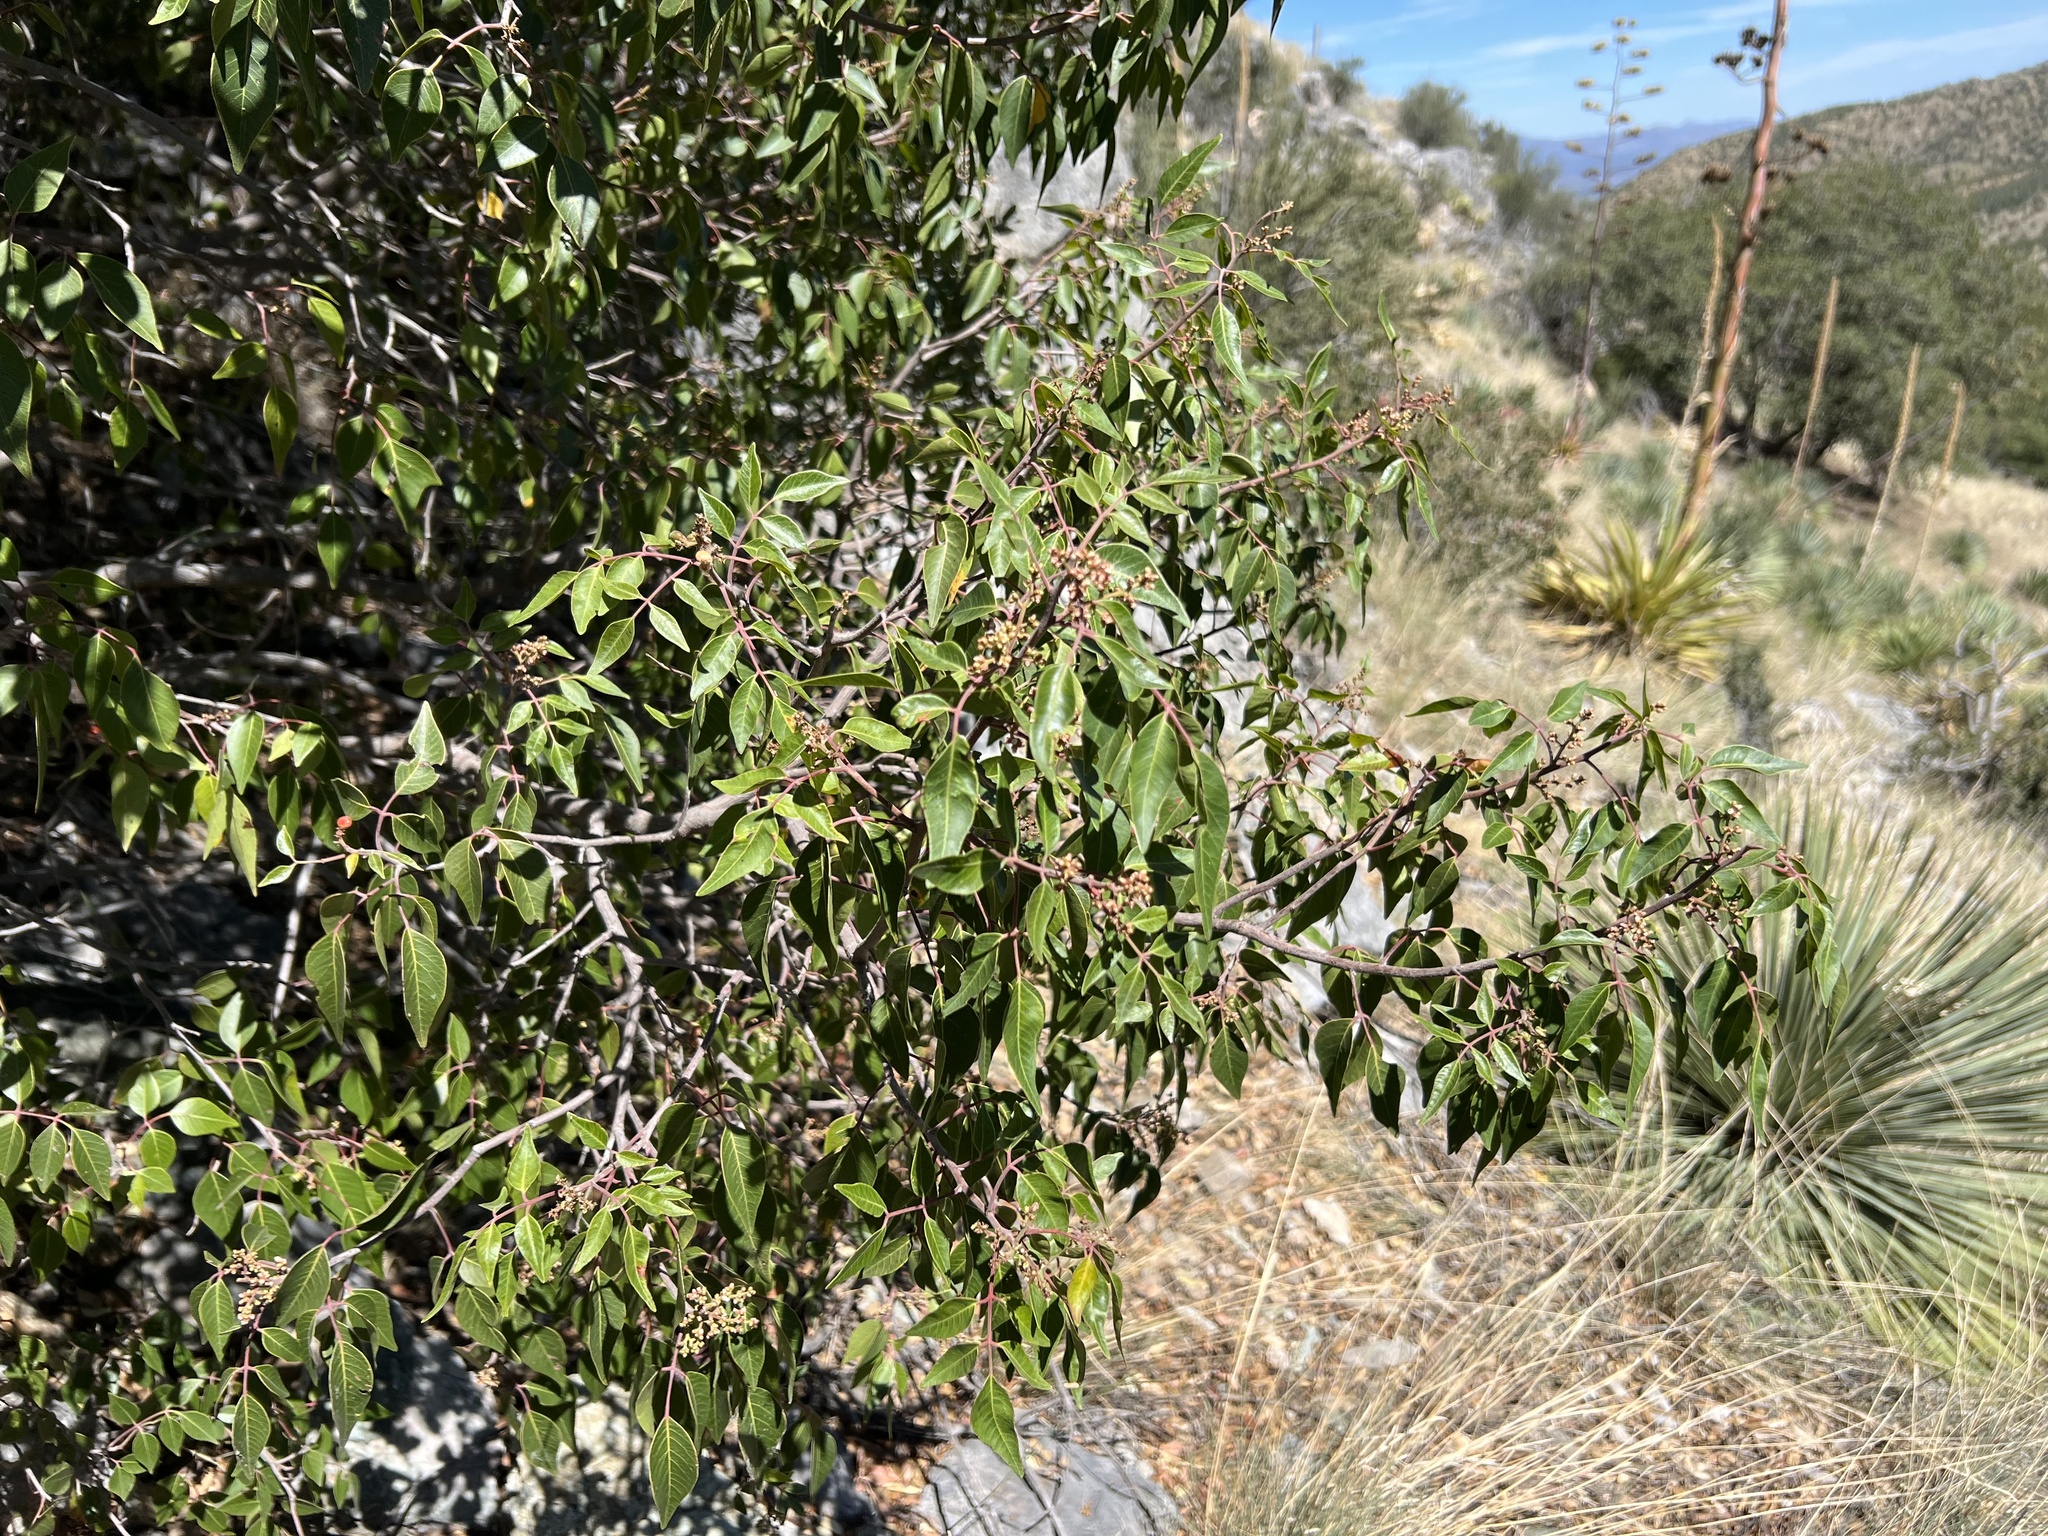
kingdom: Plantae
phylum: Tracheophyta
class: Magnoliopsida
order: Sapindales
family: Anacardiaceae
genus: Rhus
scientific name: Rhus virens
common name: Evergreen sumac
